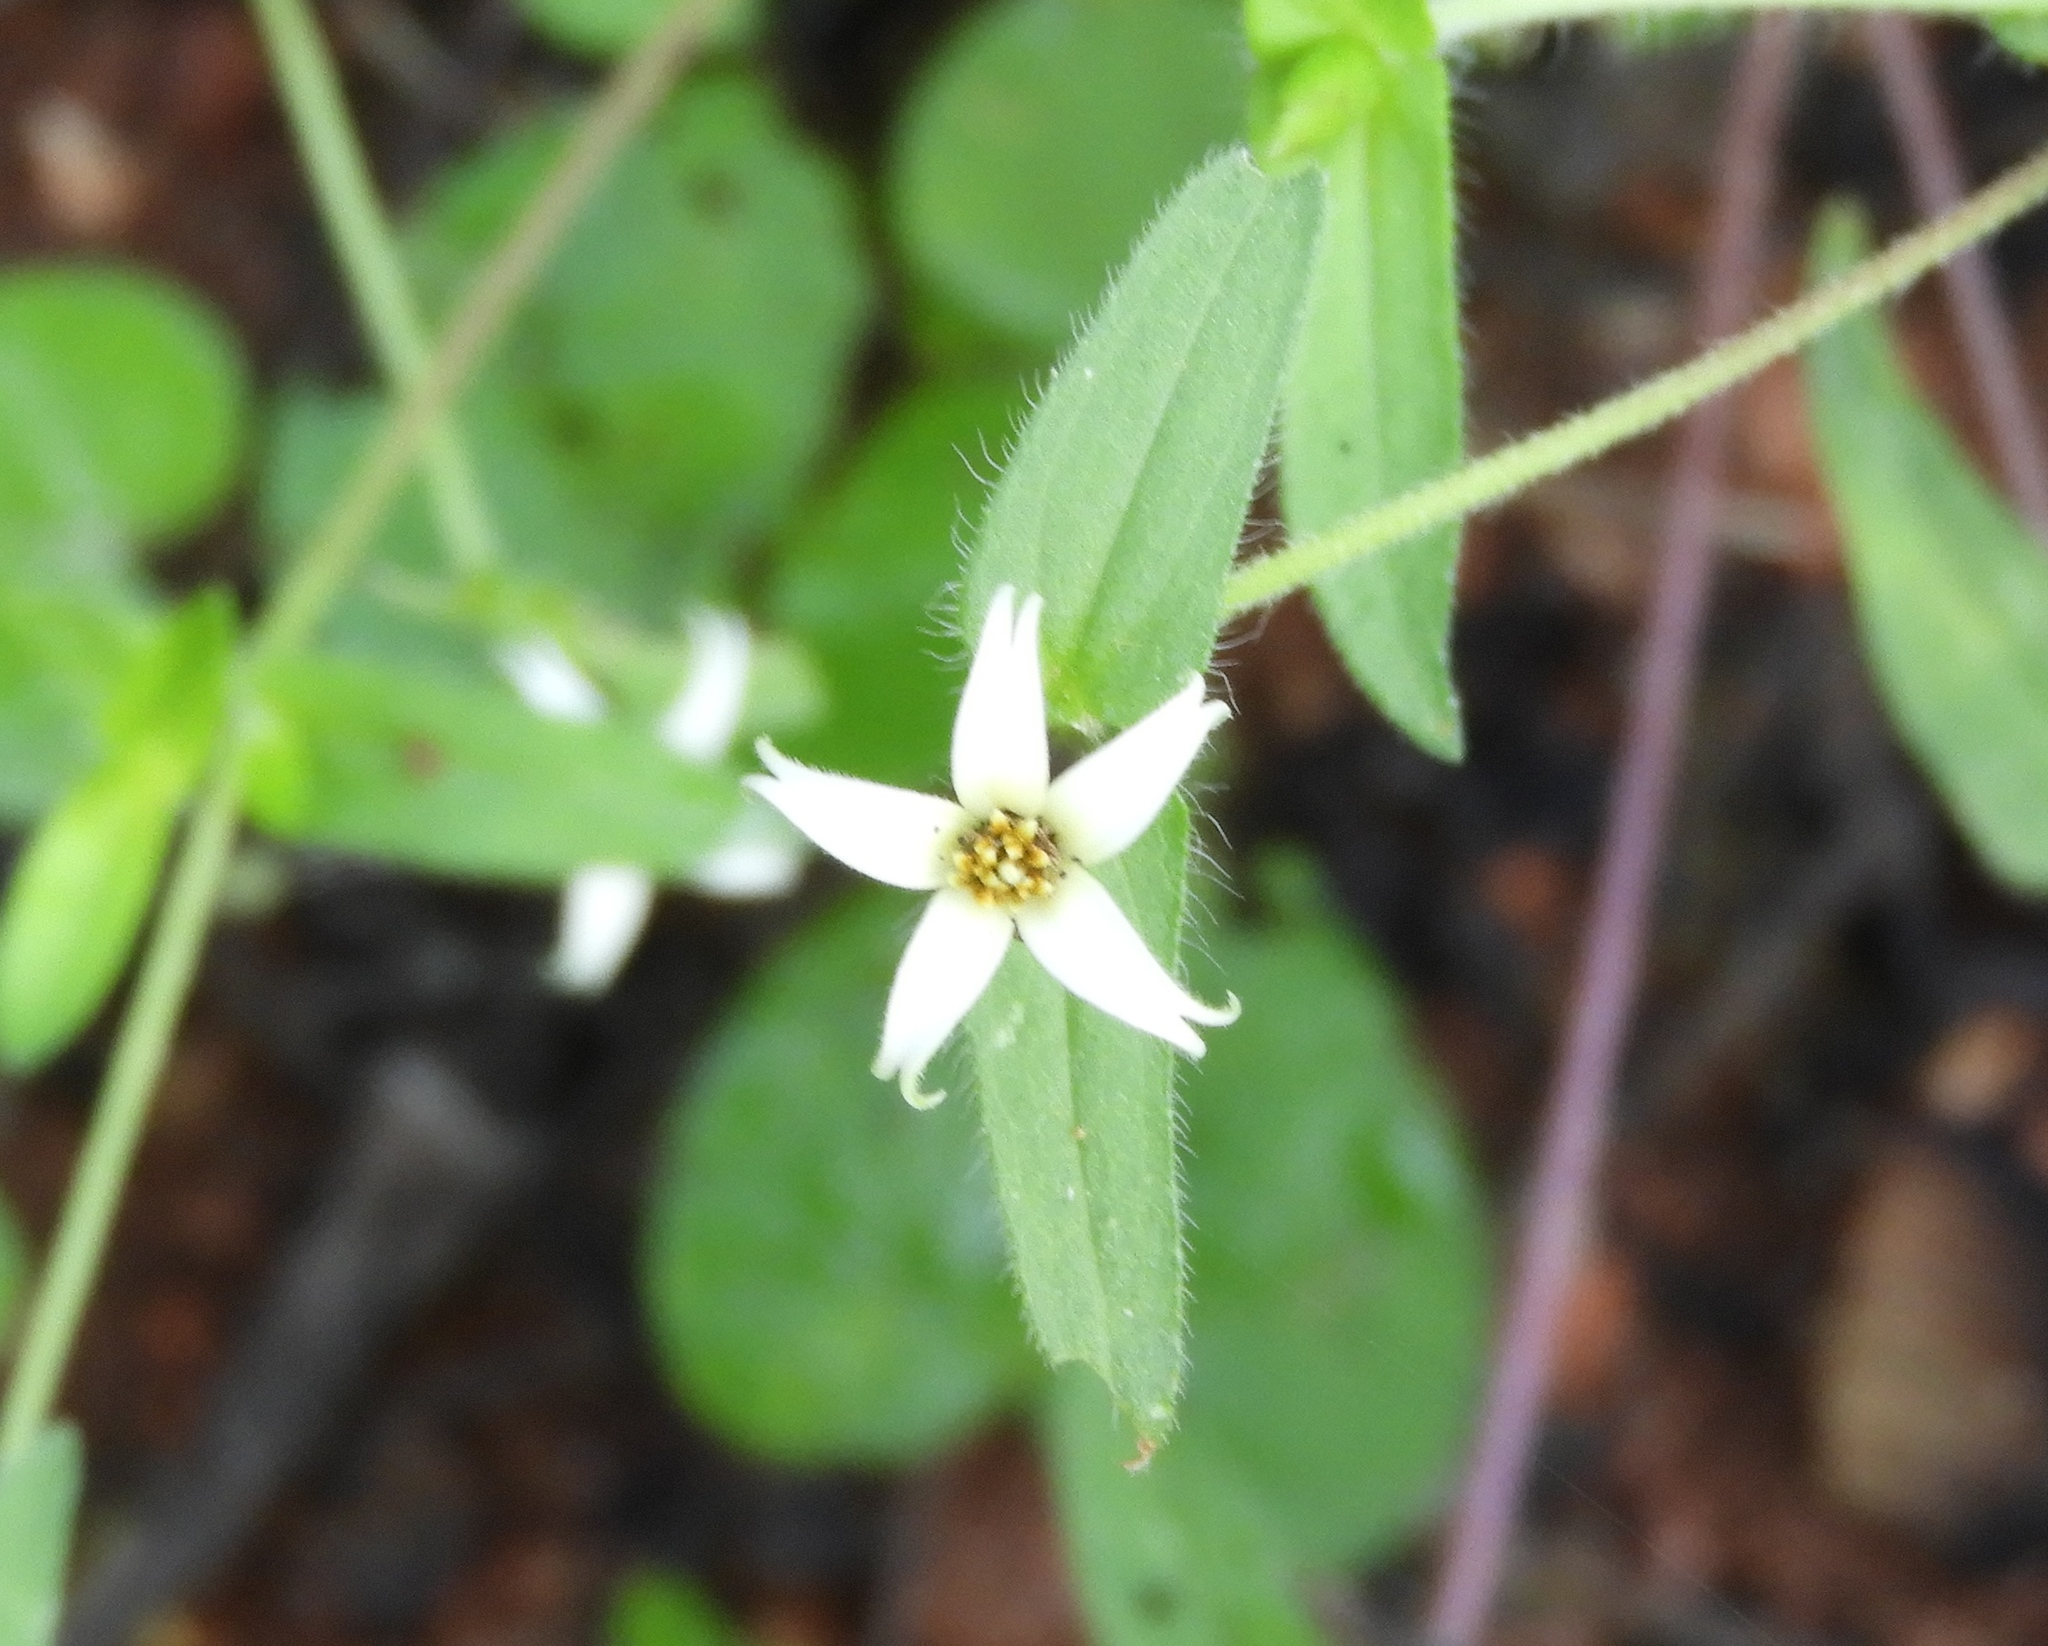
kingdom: Plantae
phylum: Tracheophyta
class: Magnoliopsida
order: Asterales
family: Asteraceae
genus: Zinnia
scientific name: Zinnia zinnioides
